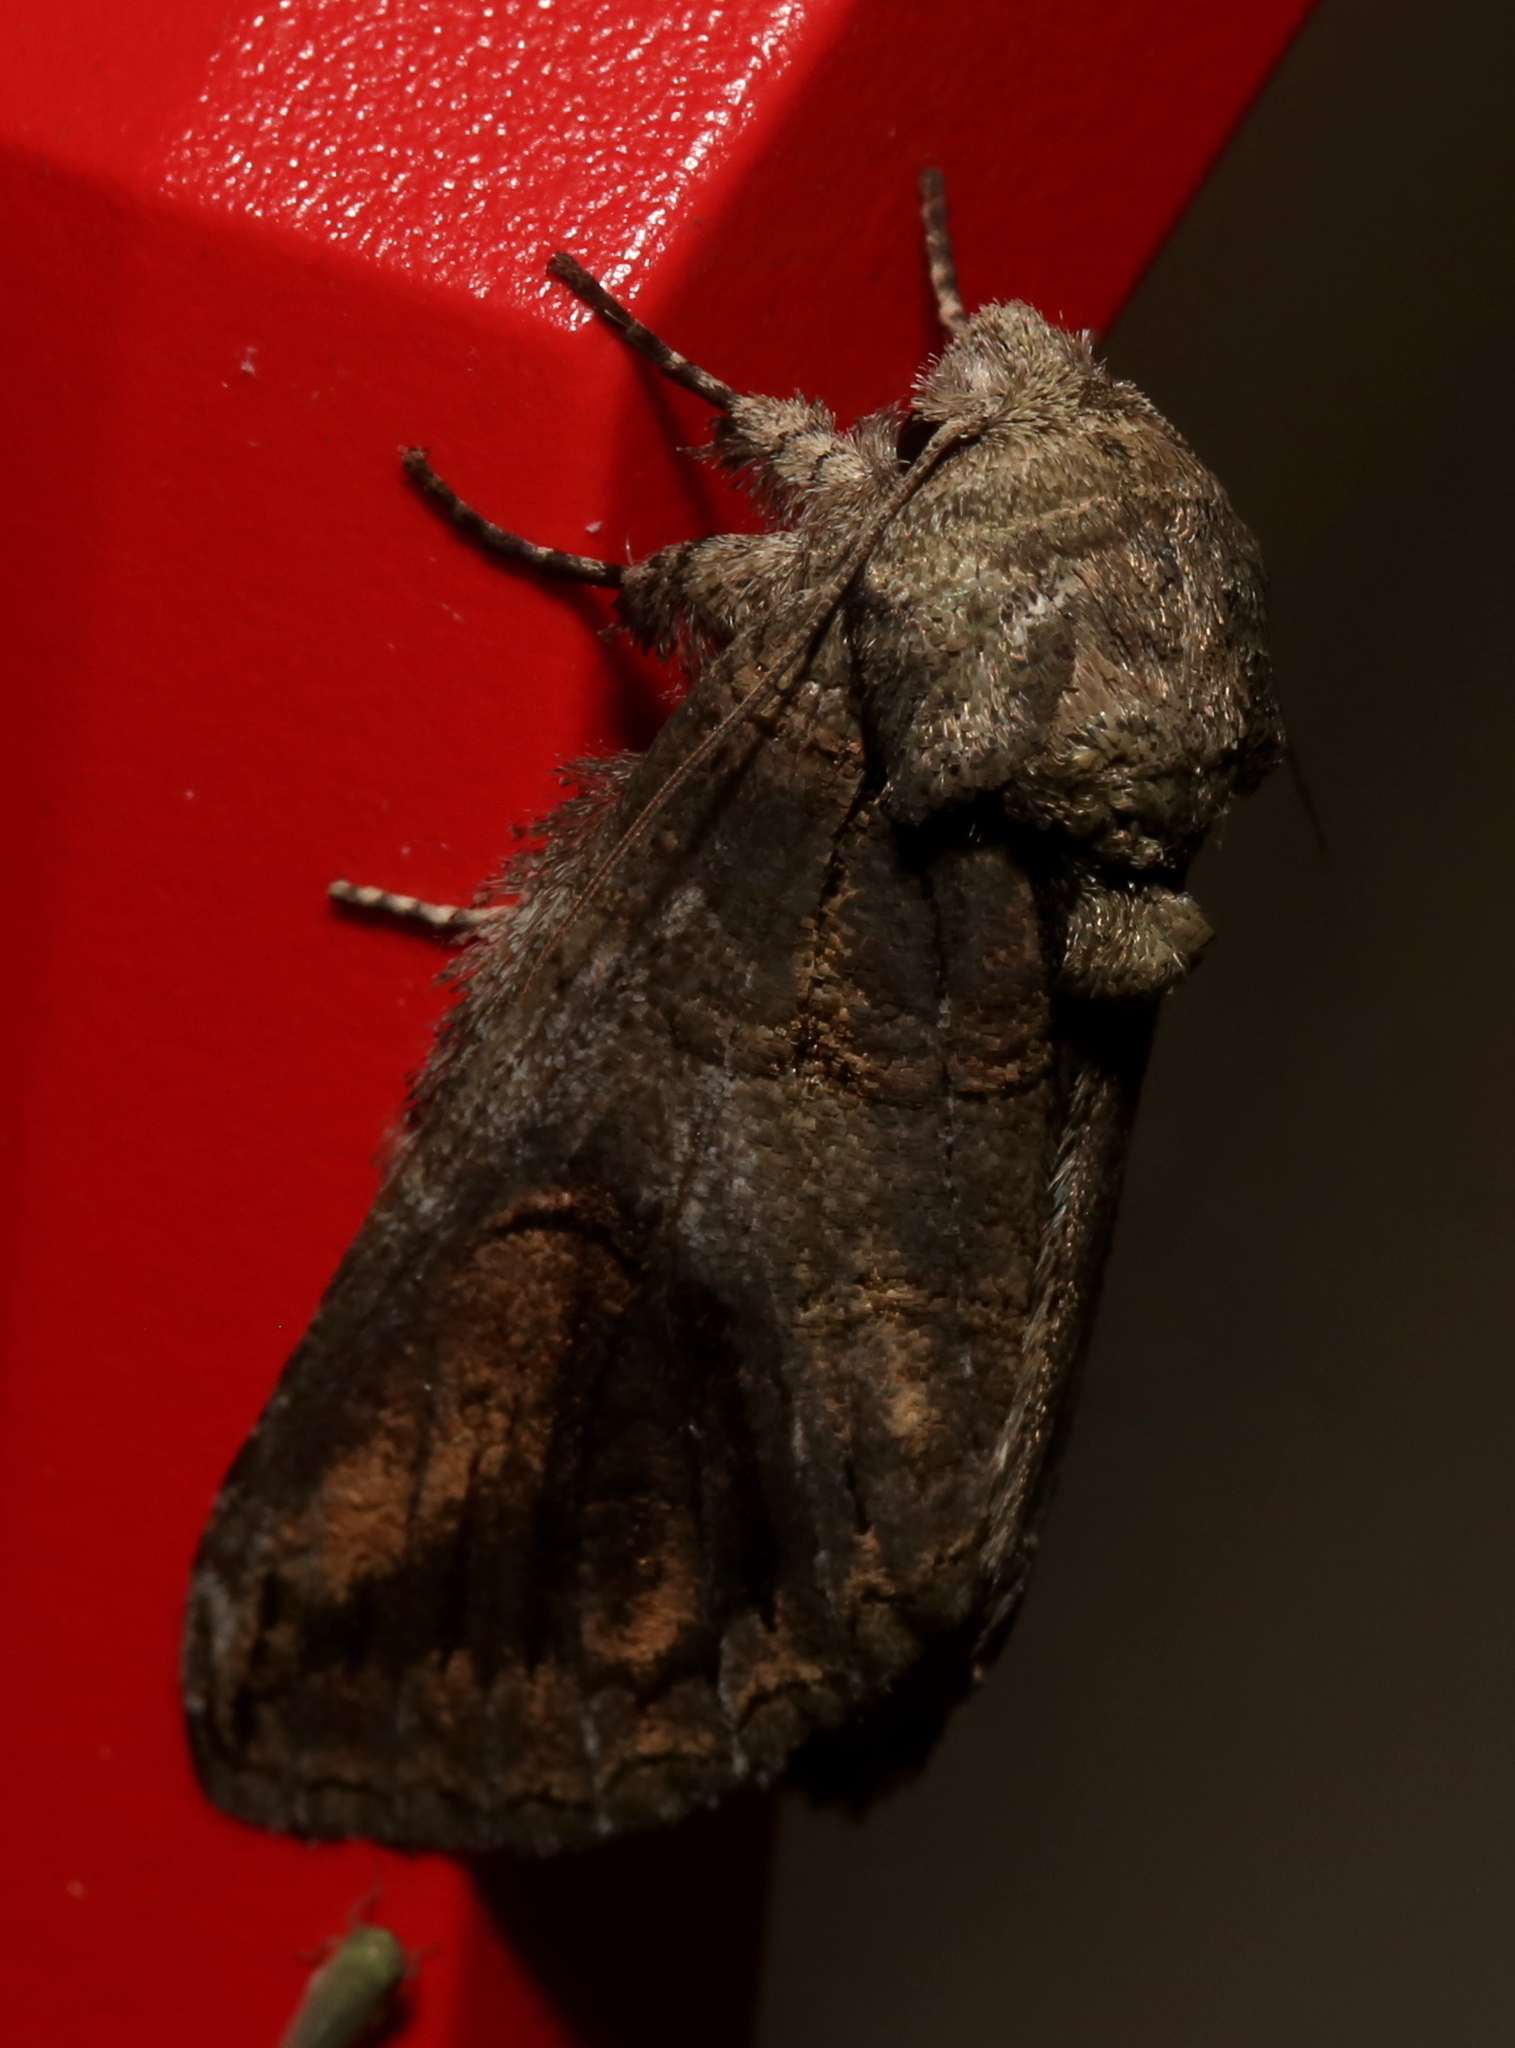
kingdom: Animalia
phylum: Arthropoda
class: Insecta
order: Lepidoptera
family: Notodontidae
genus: Heterocampa
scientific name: Heterocampa obliqua
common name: Oblique heterocampa
